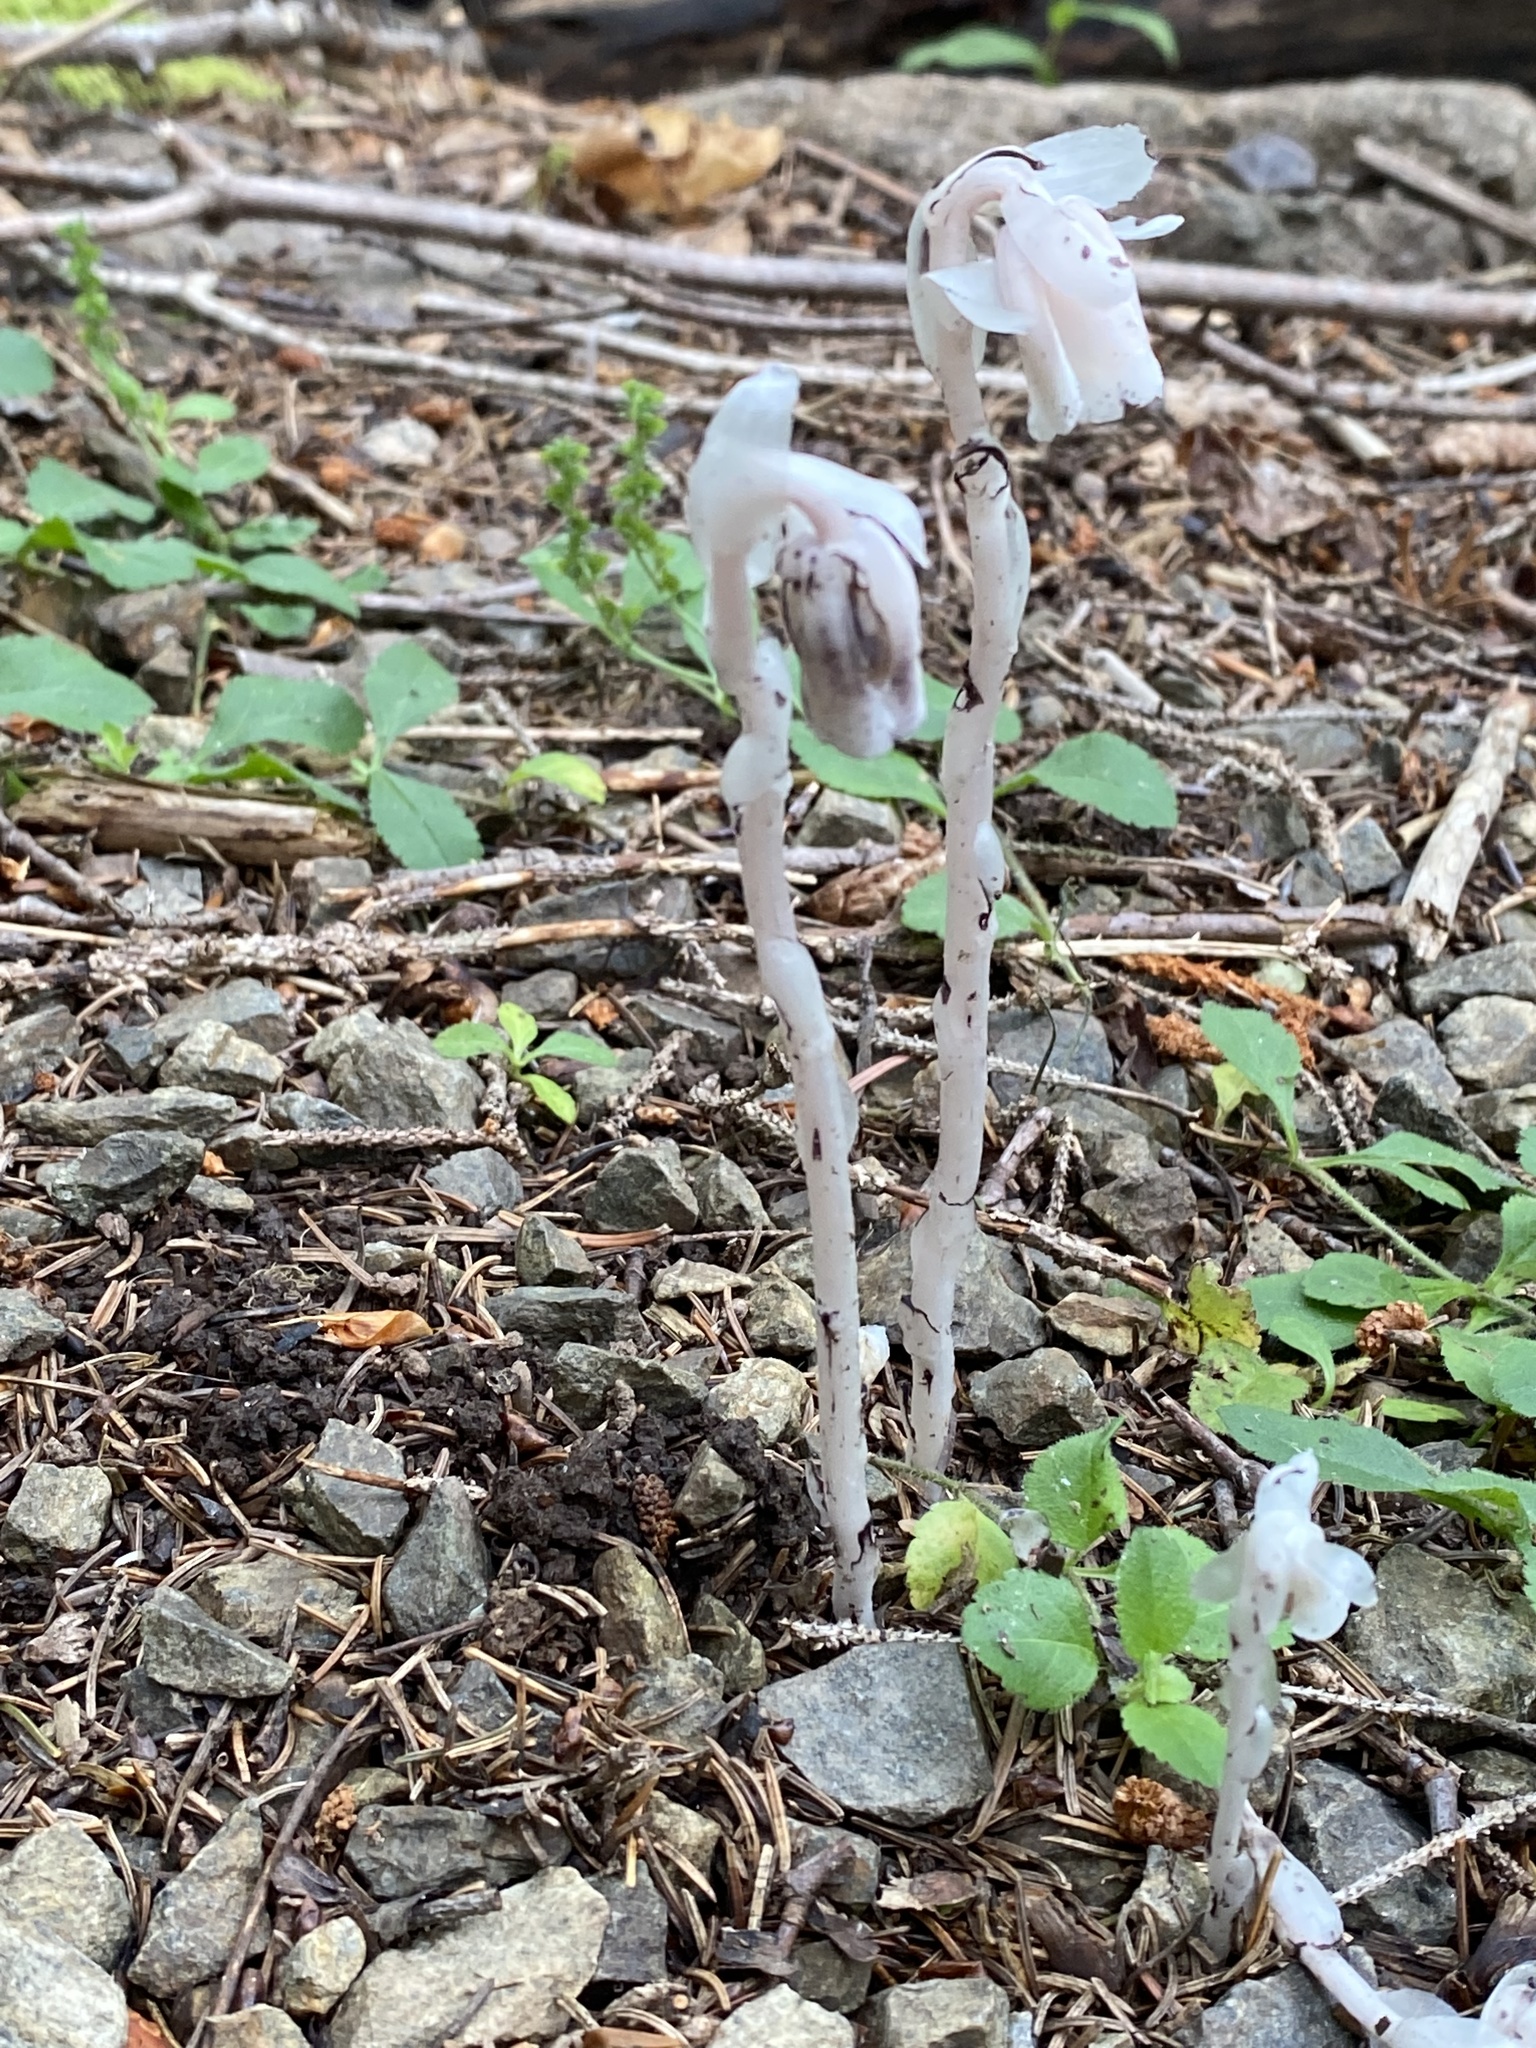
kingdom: Plantae
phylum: Tracheophyta
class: Magnoliopsida
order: Ericales
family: Ericaceae
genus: Monotropa
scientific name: Monotropa uniflora
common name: Convulsion root
